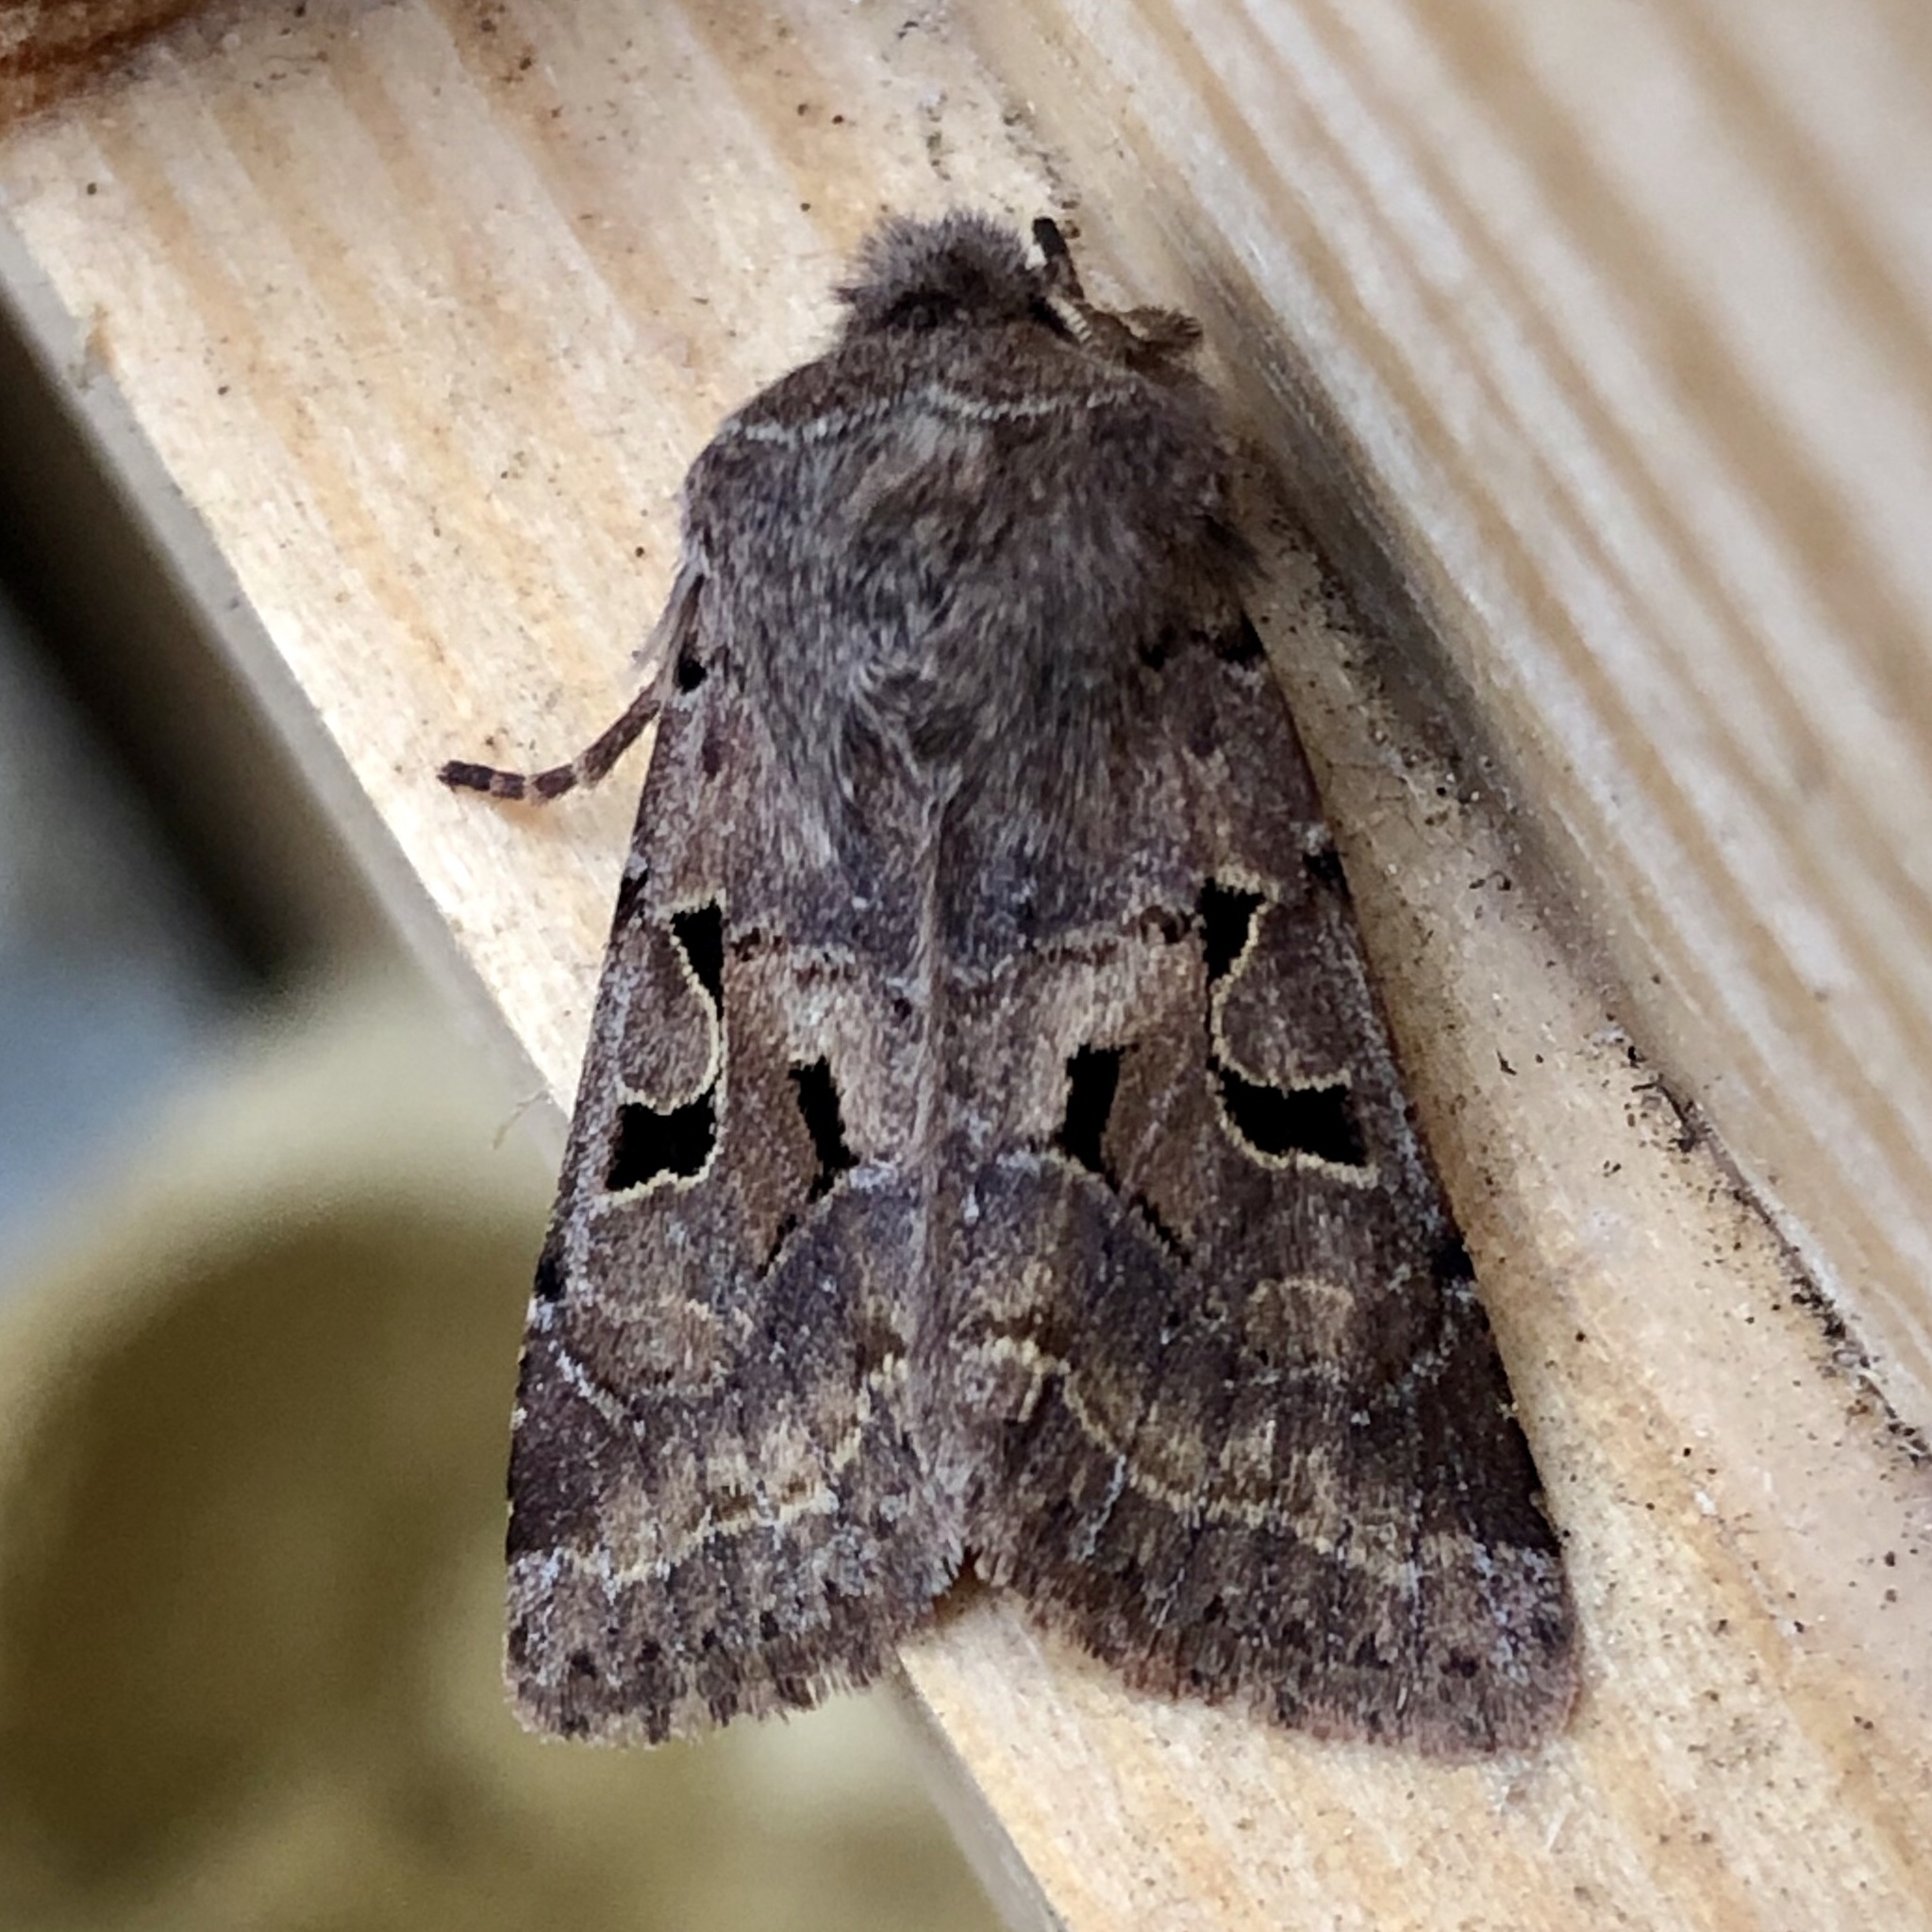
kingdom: Animalia
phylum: Arthropoda
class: Insecta
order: Lepidoptera
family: Noctuidae
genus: Orthosia
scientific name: Orthosia gothica
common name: Hebrew character
